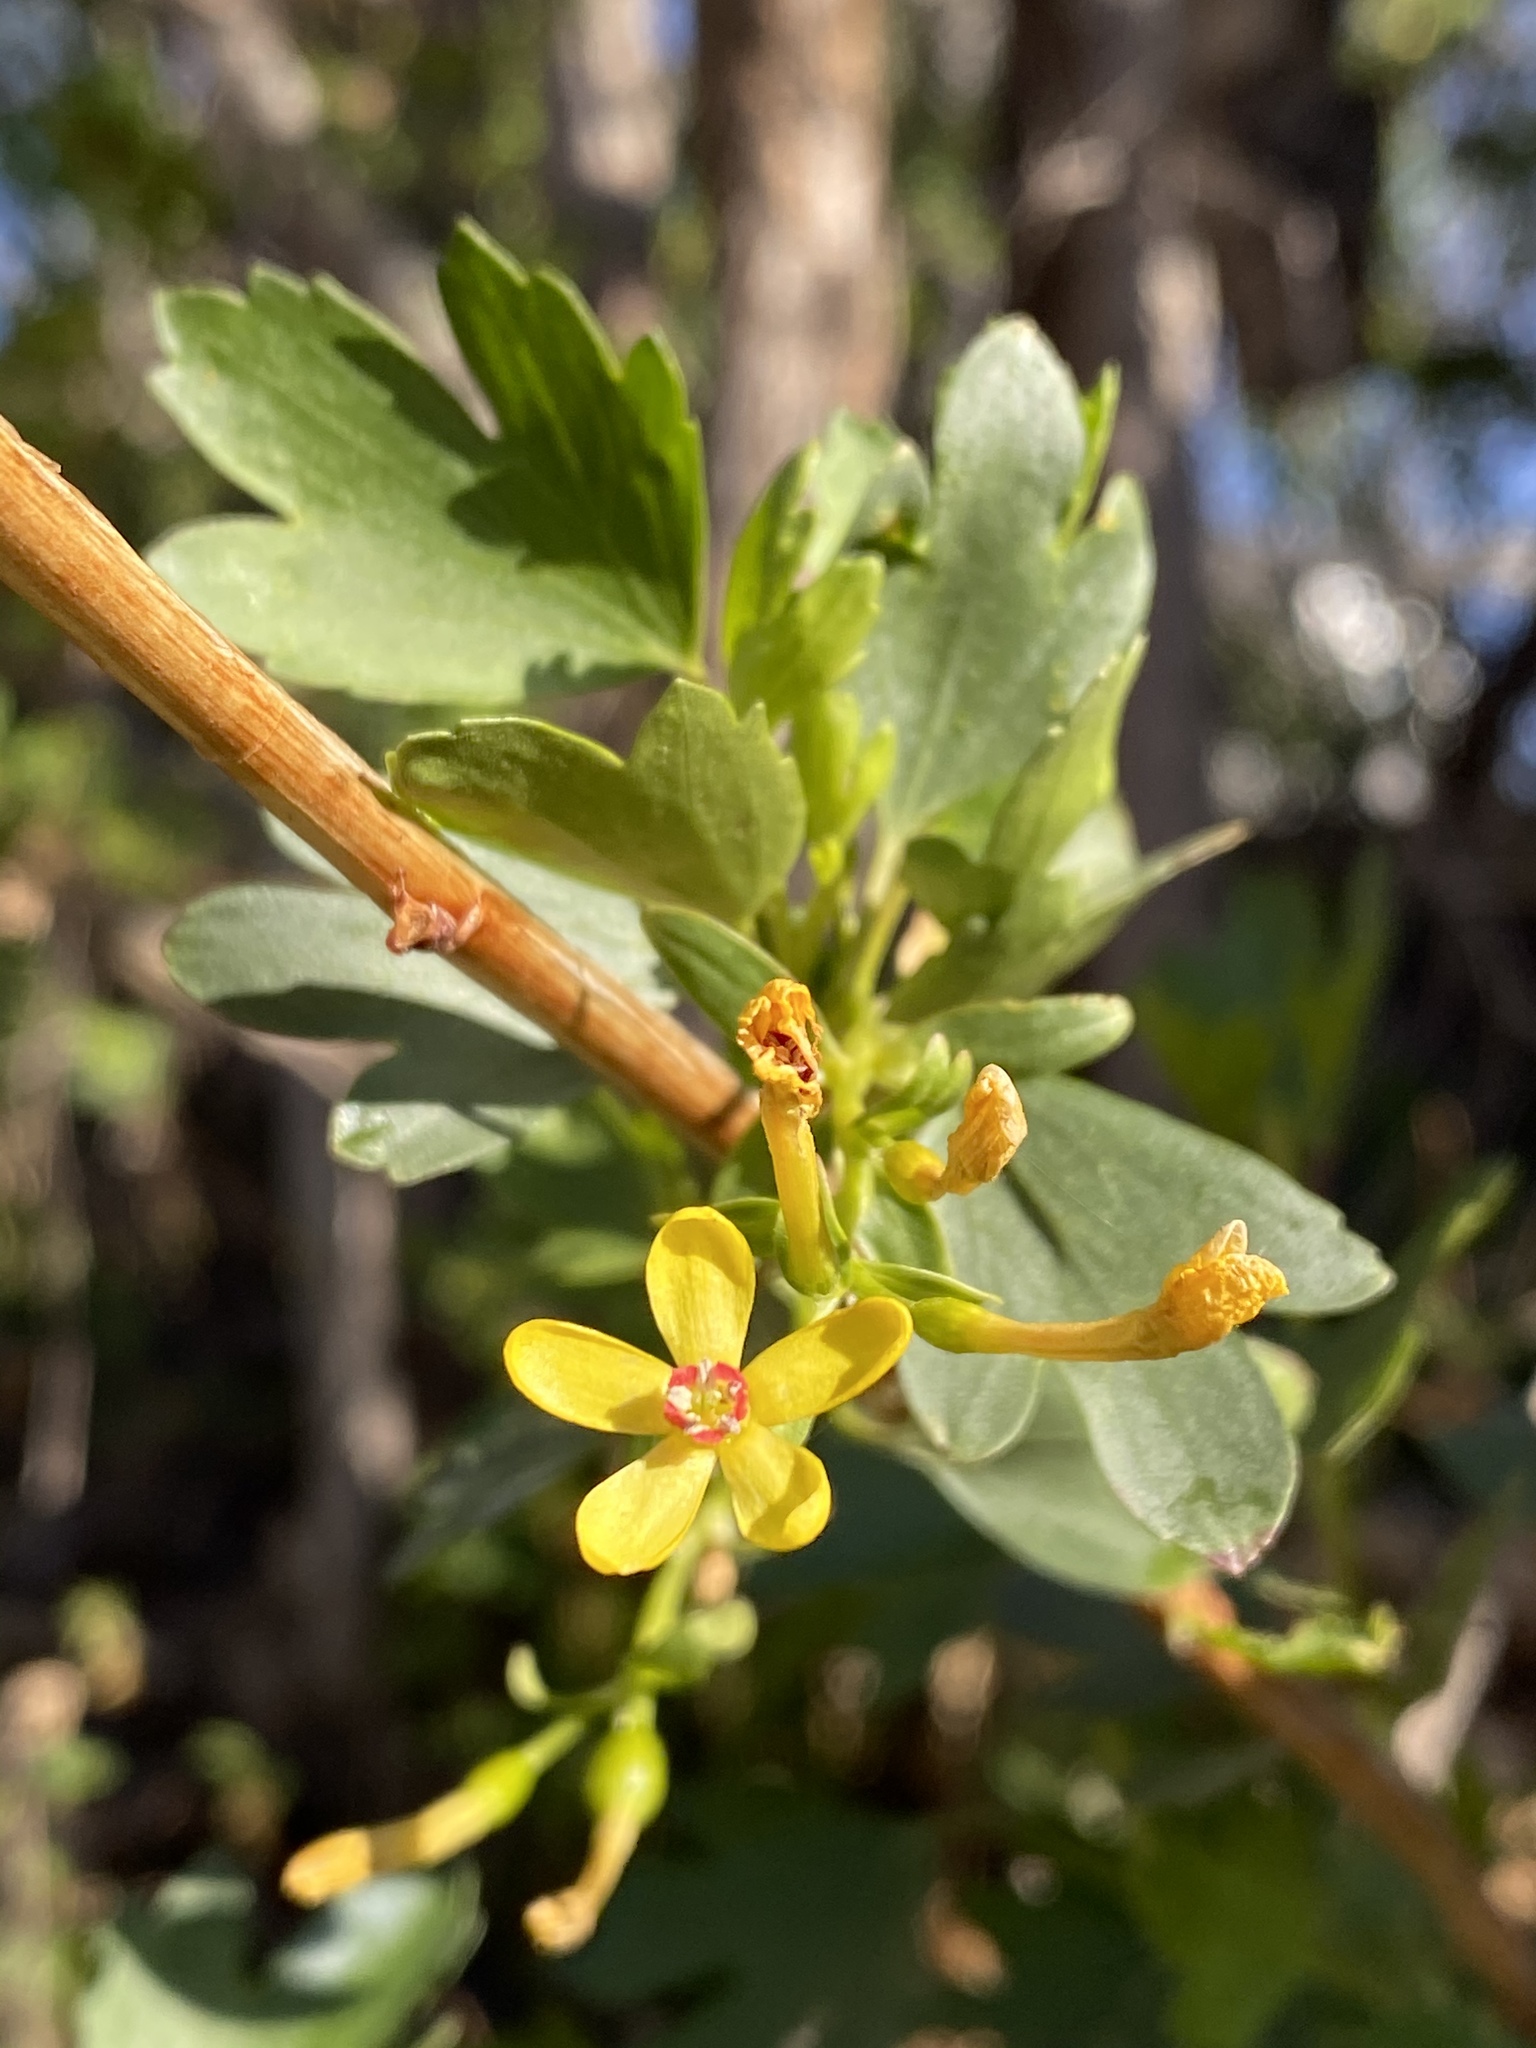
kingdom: Plantae
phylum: Tracheophyta
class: Magnoliopsida
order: Saxifragales
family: Grossulariaceae
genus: Ribes
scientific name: Ribes aureum
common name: Golden currant
